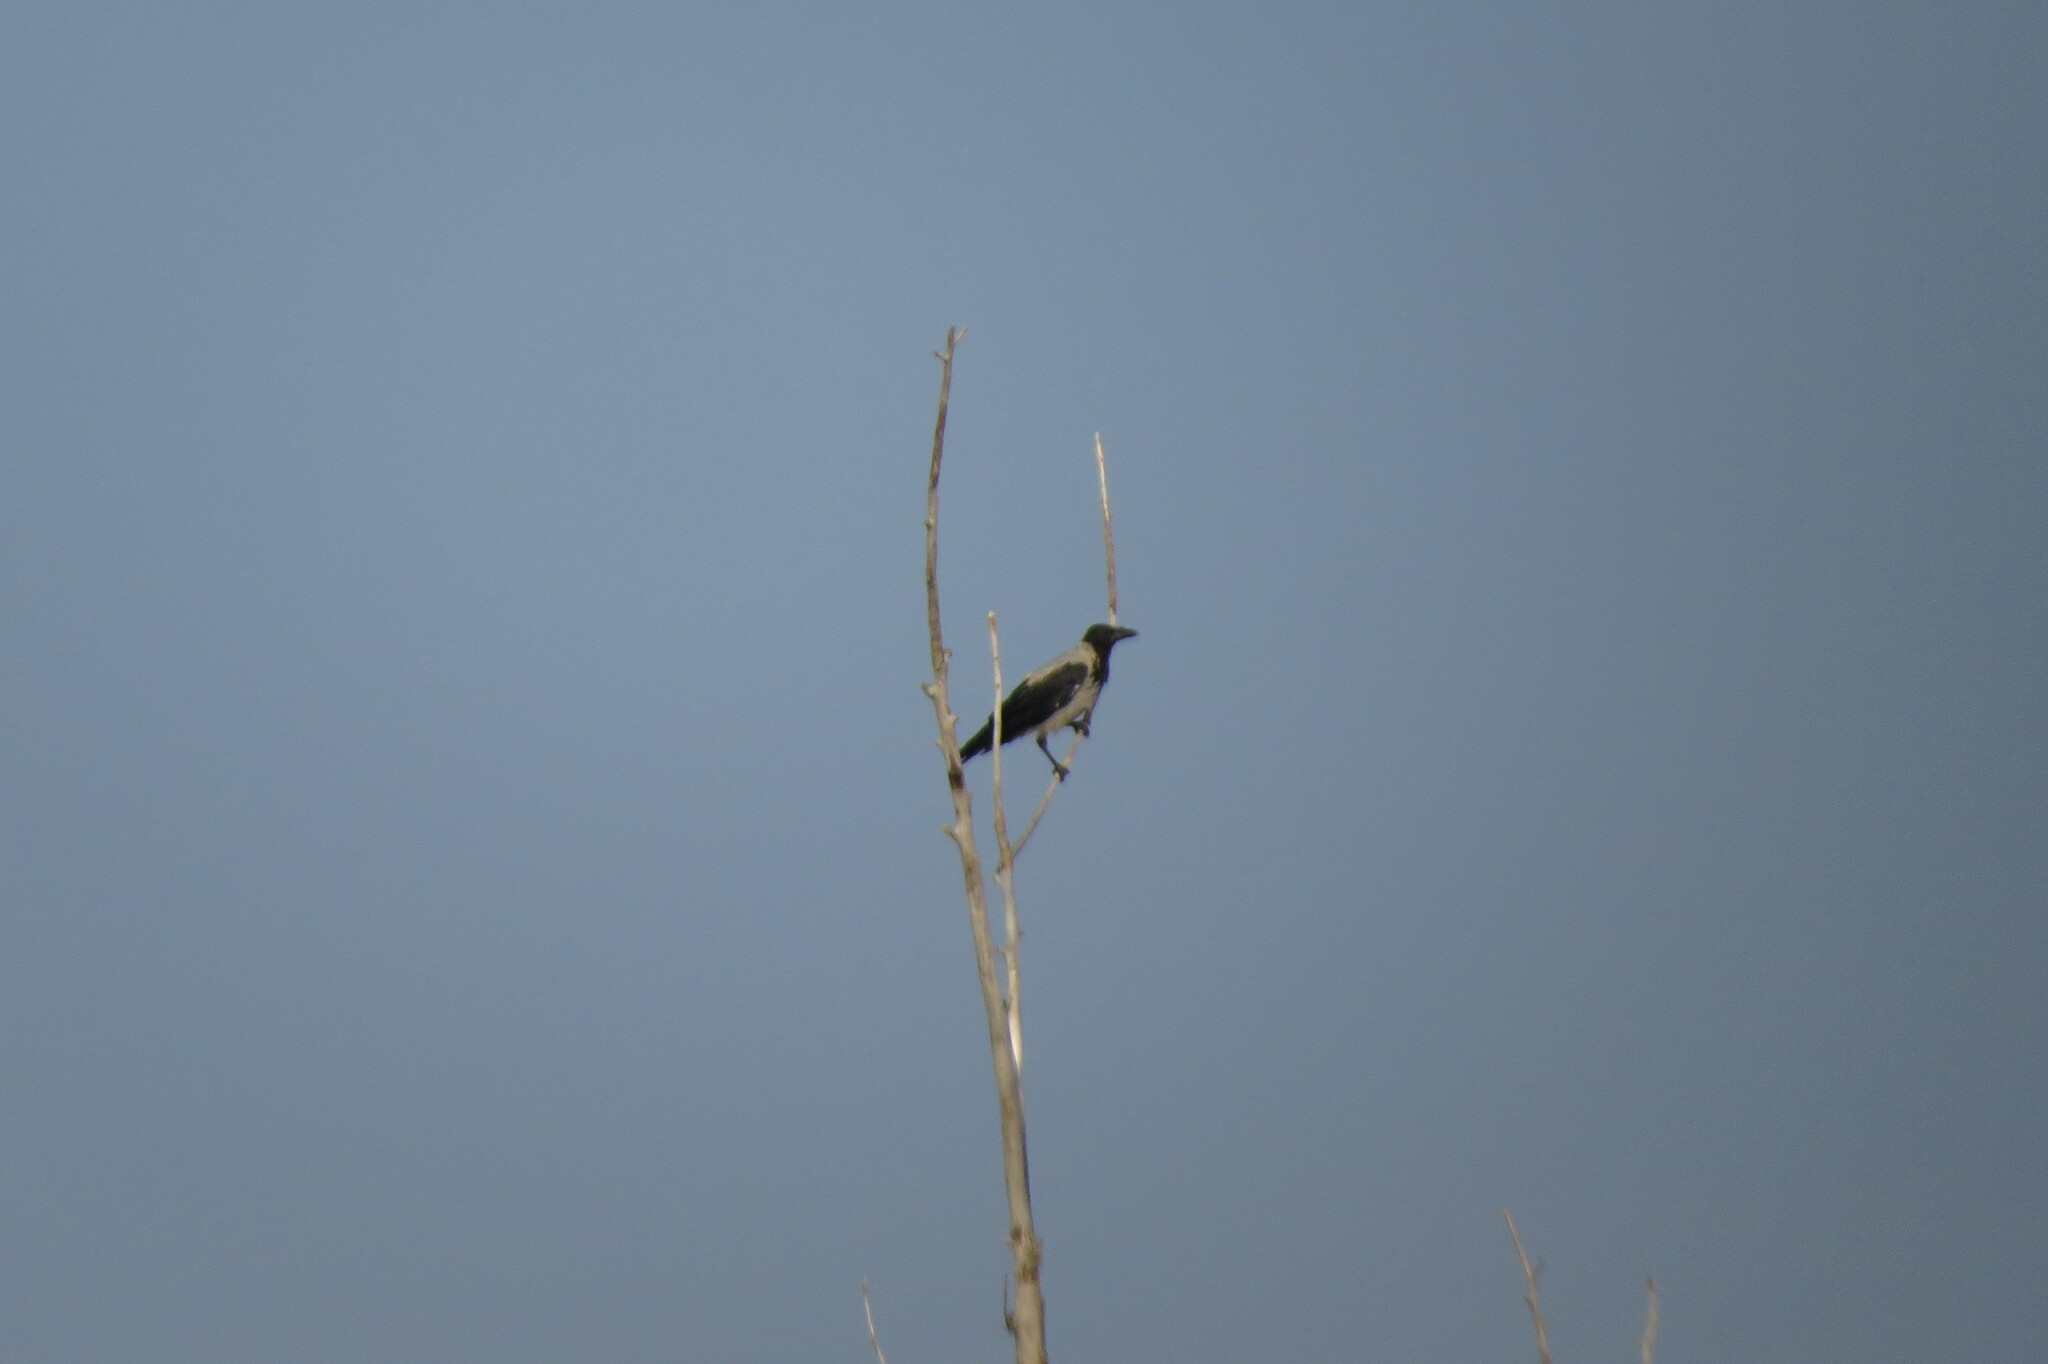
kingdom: Animalia
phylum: Chordata
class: Aves
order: Passeriformes
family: Corvidae
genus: Corvus
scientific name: Corvus cornix
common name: Hooded crow
